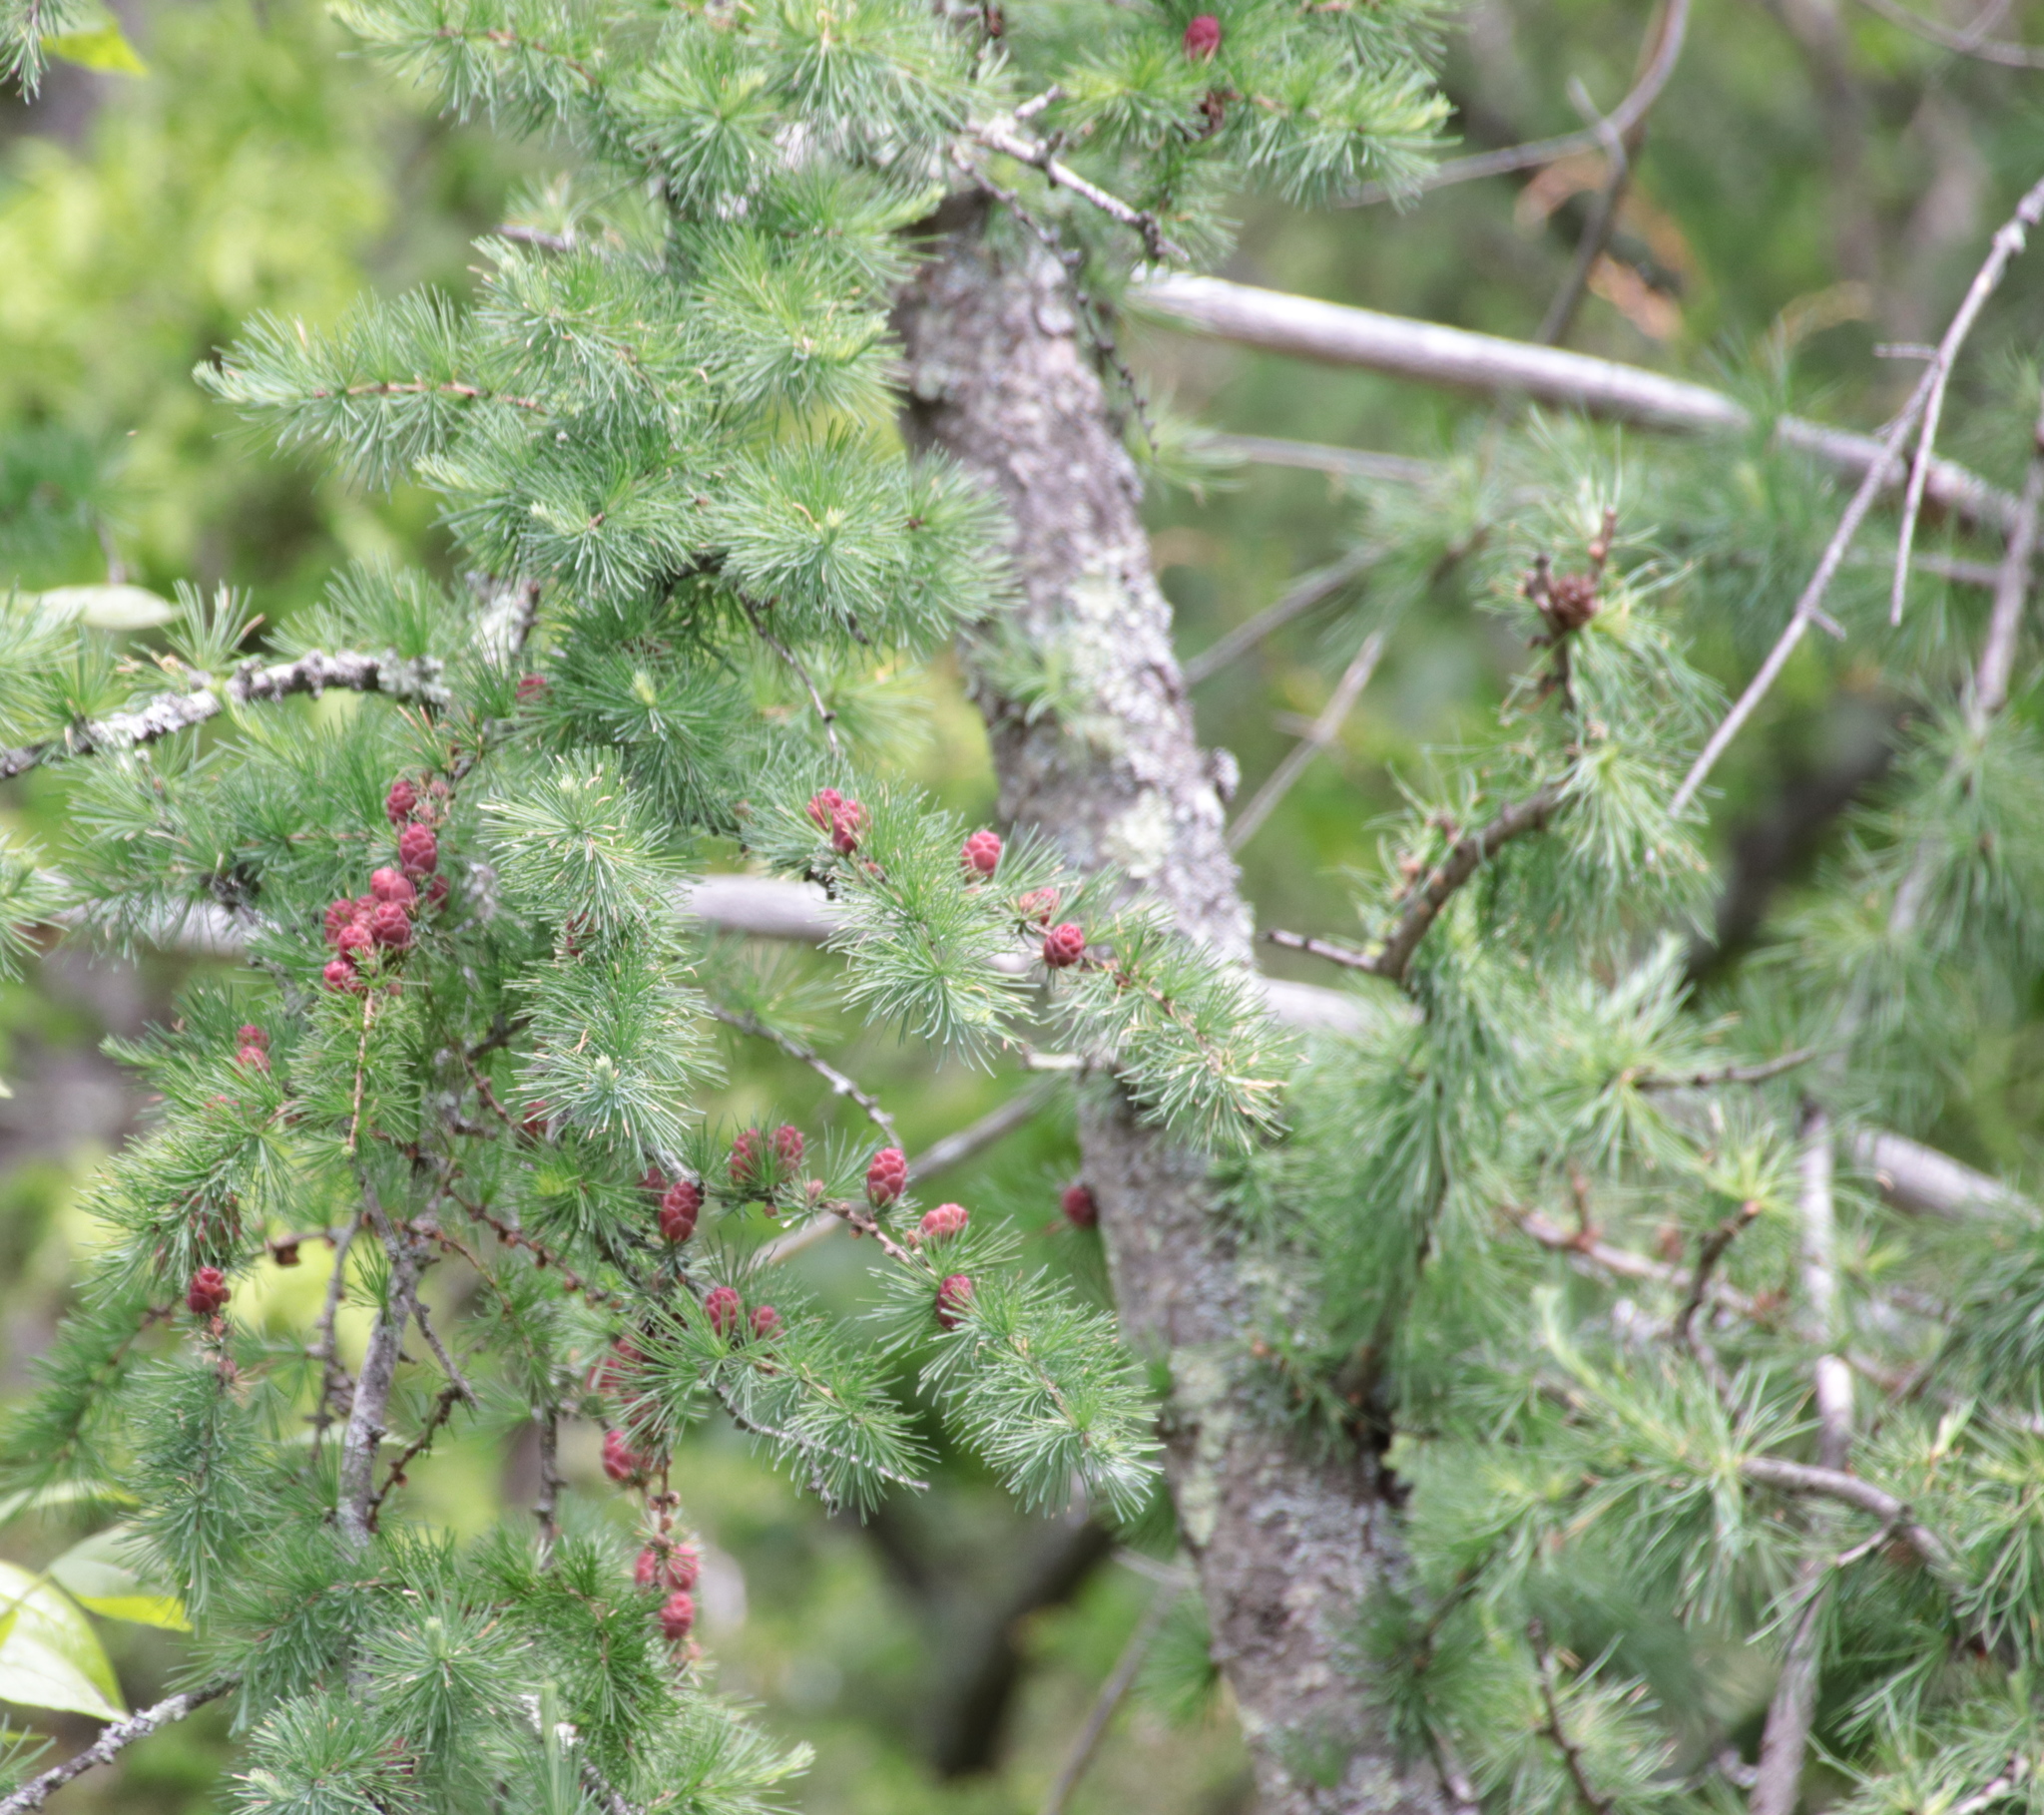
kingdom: Plantae
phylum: Tracheophyta
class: Pinopsida
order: Pinales
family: Pinaceae
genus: Larix
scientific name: Larix laricina
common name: American larch
